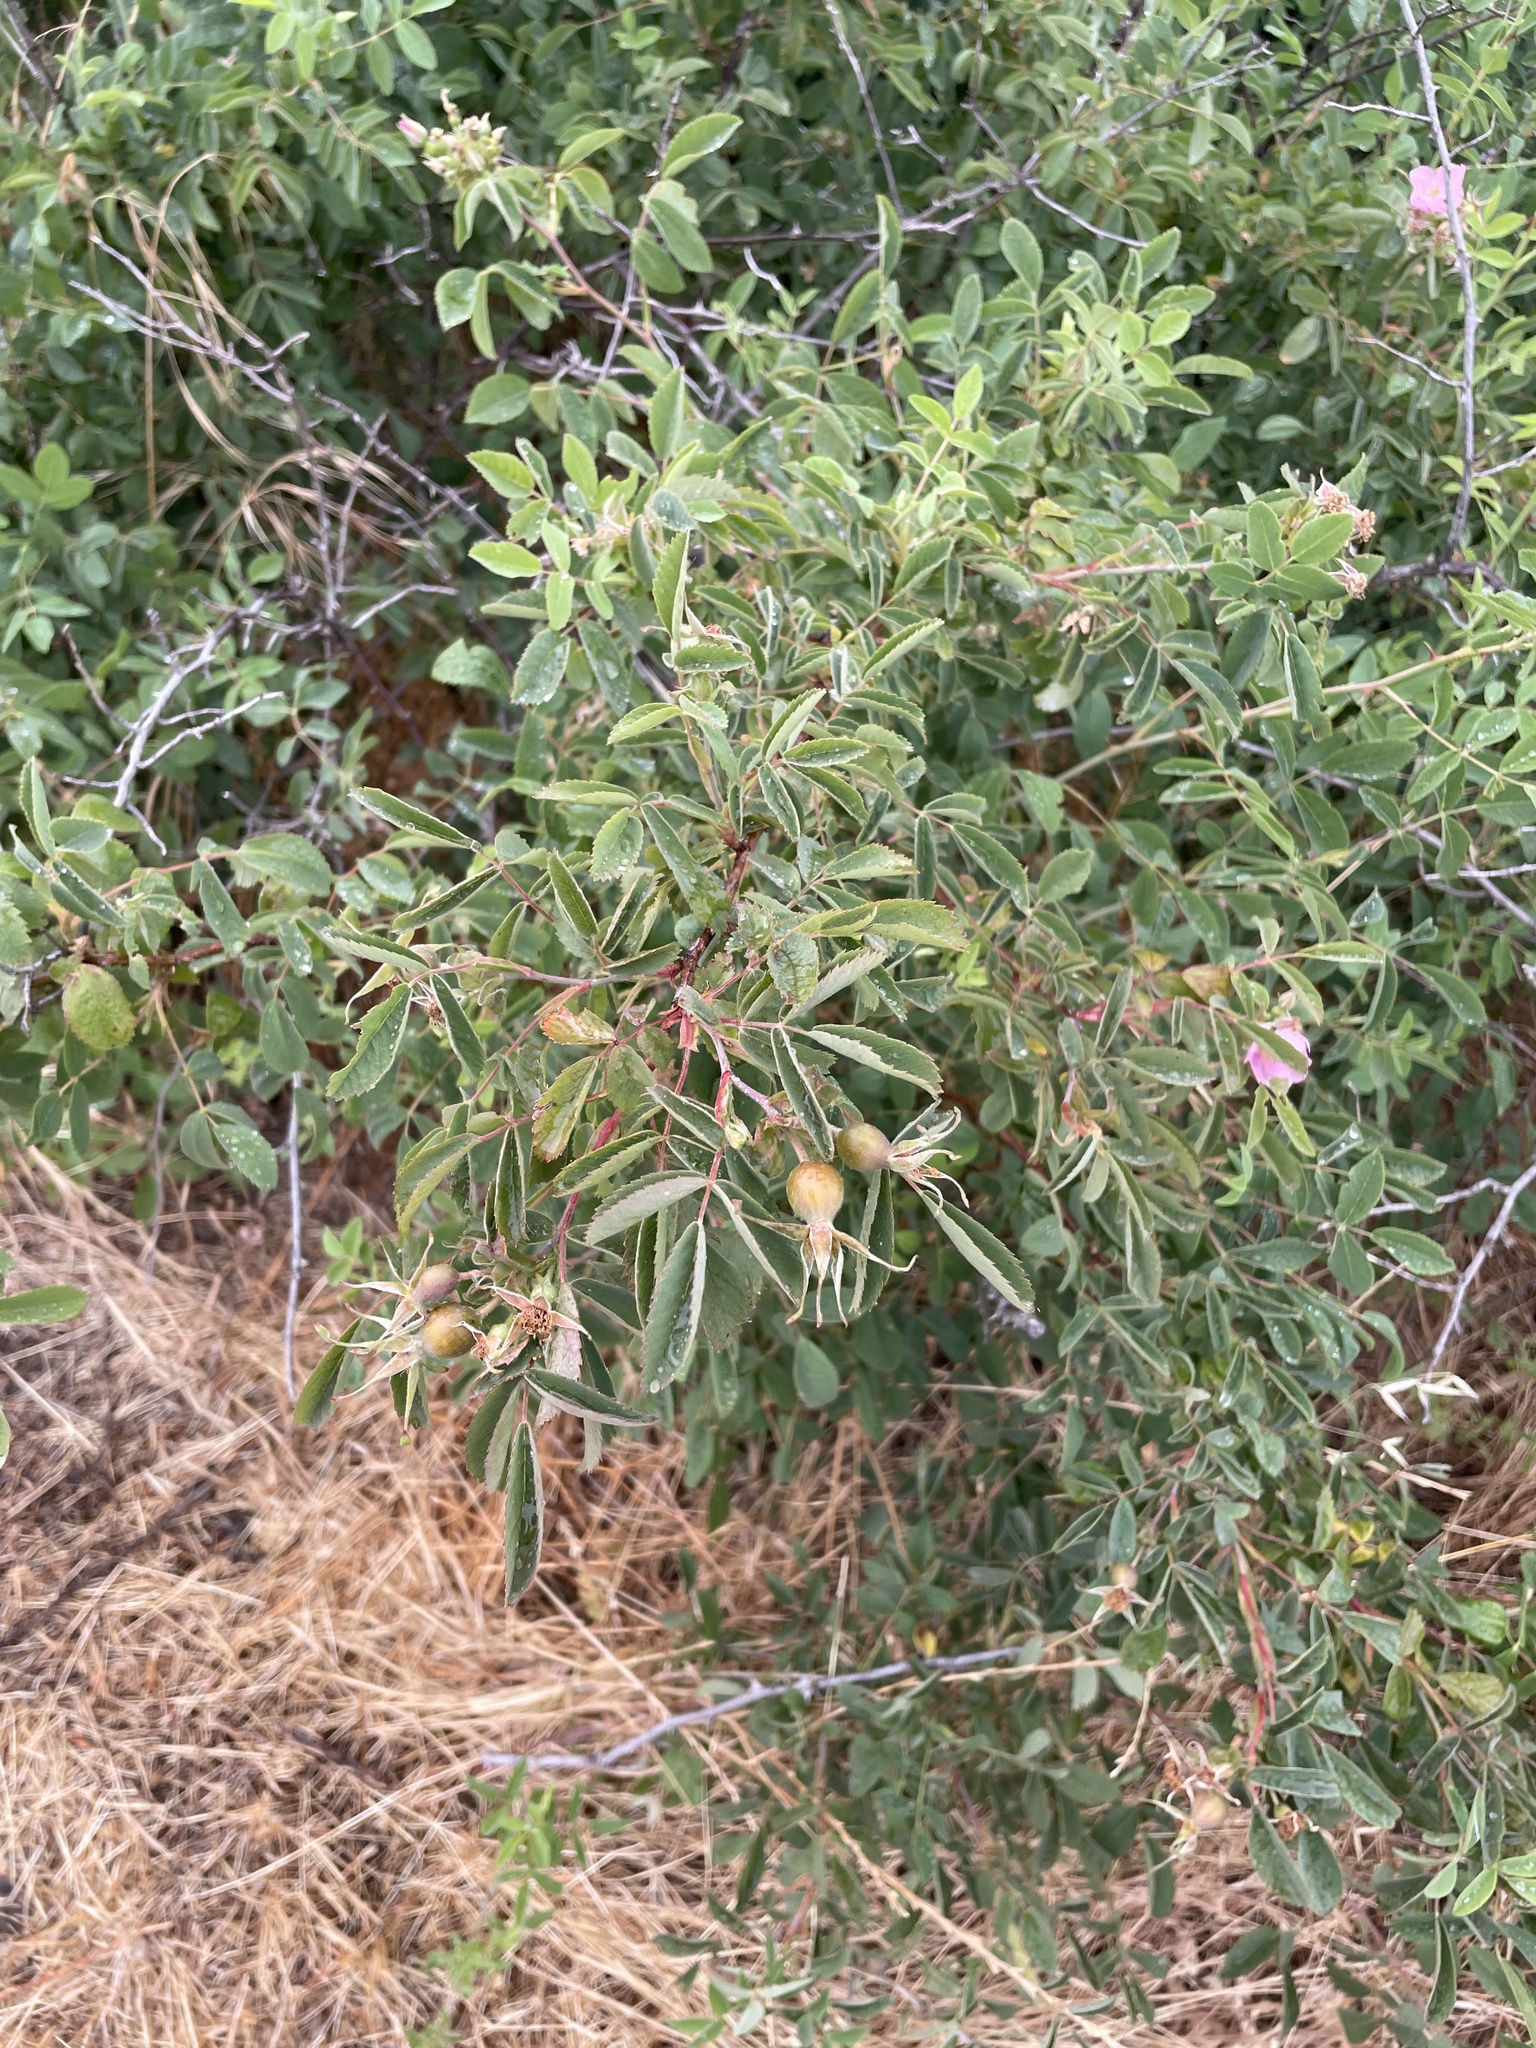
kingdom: Plantae
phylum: Tracheophyta
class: Magnoliopsida
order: Rosales
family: Rosaceae
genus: Rosa
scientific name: Rosa californica
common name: California rose
